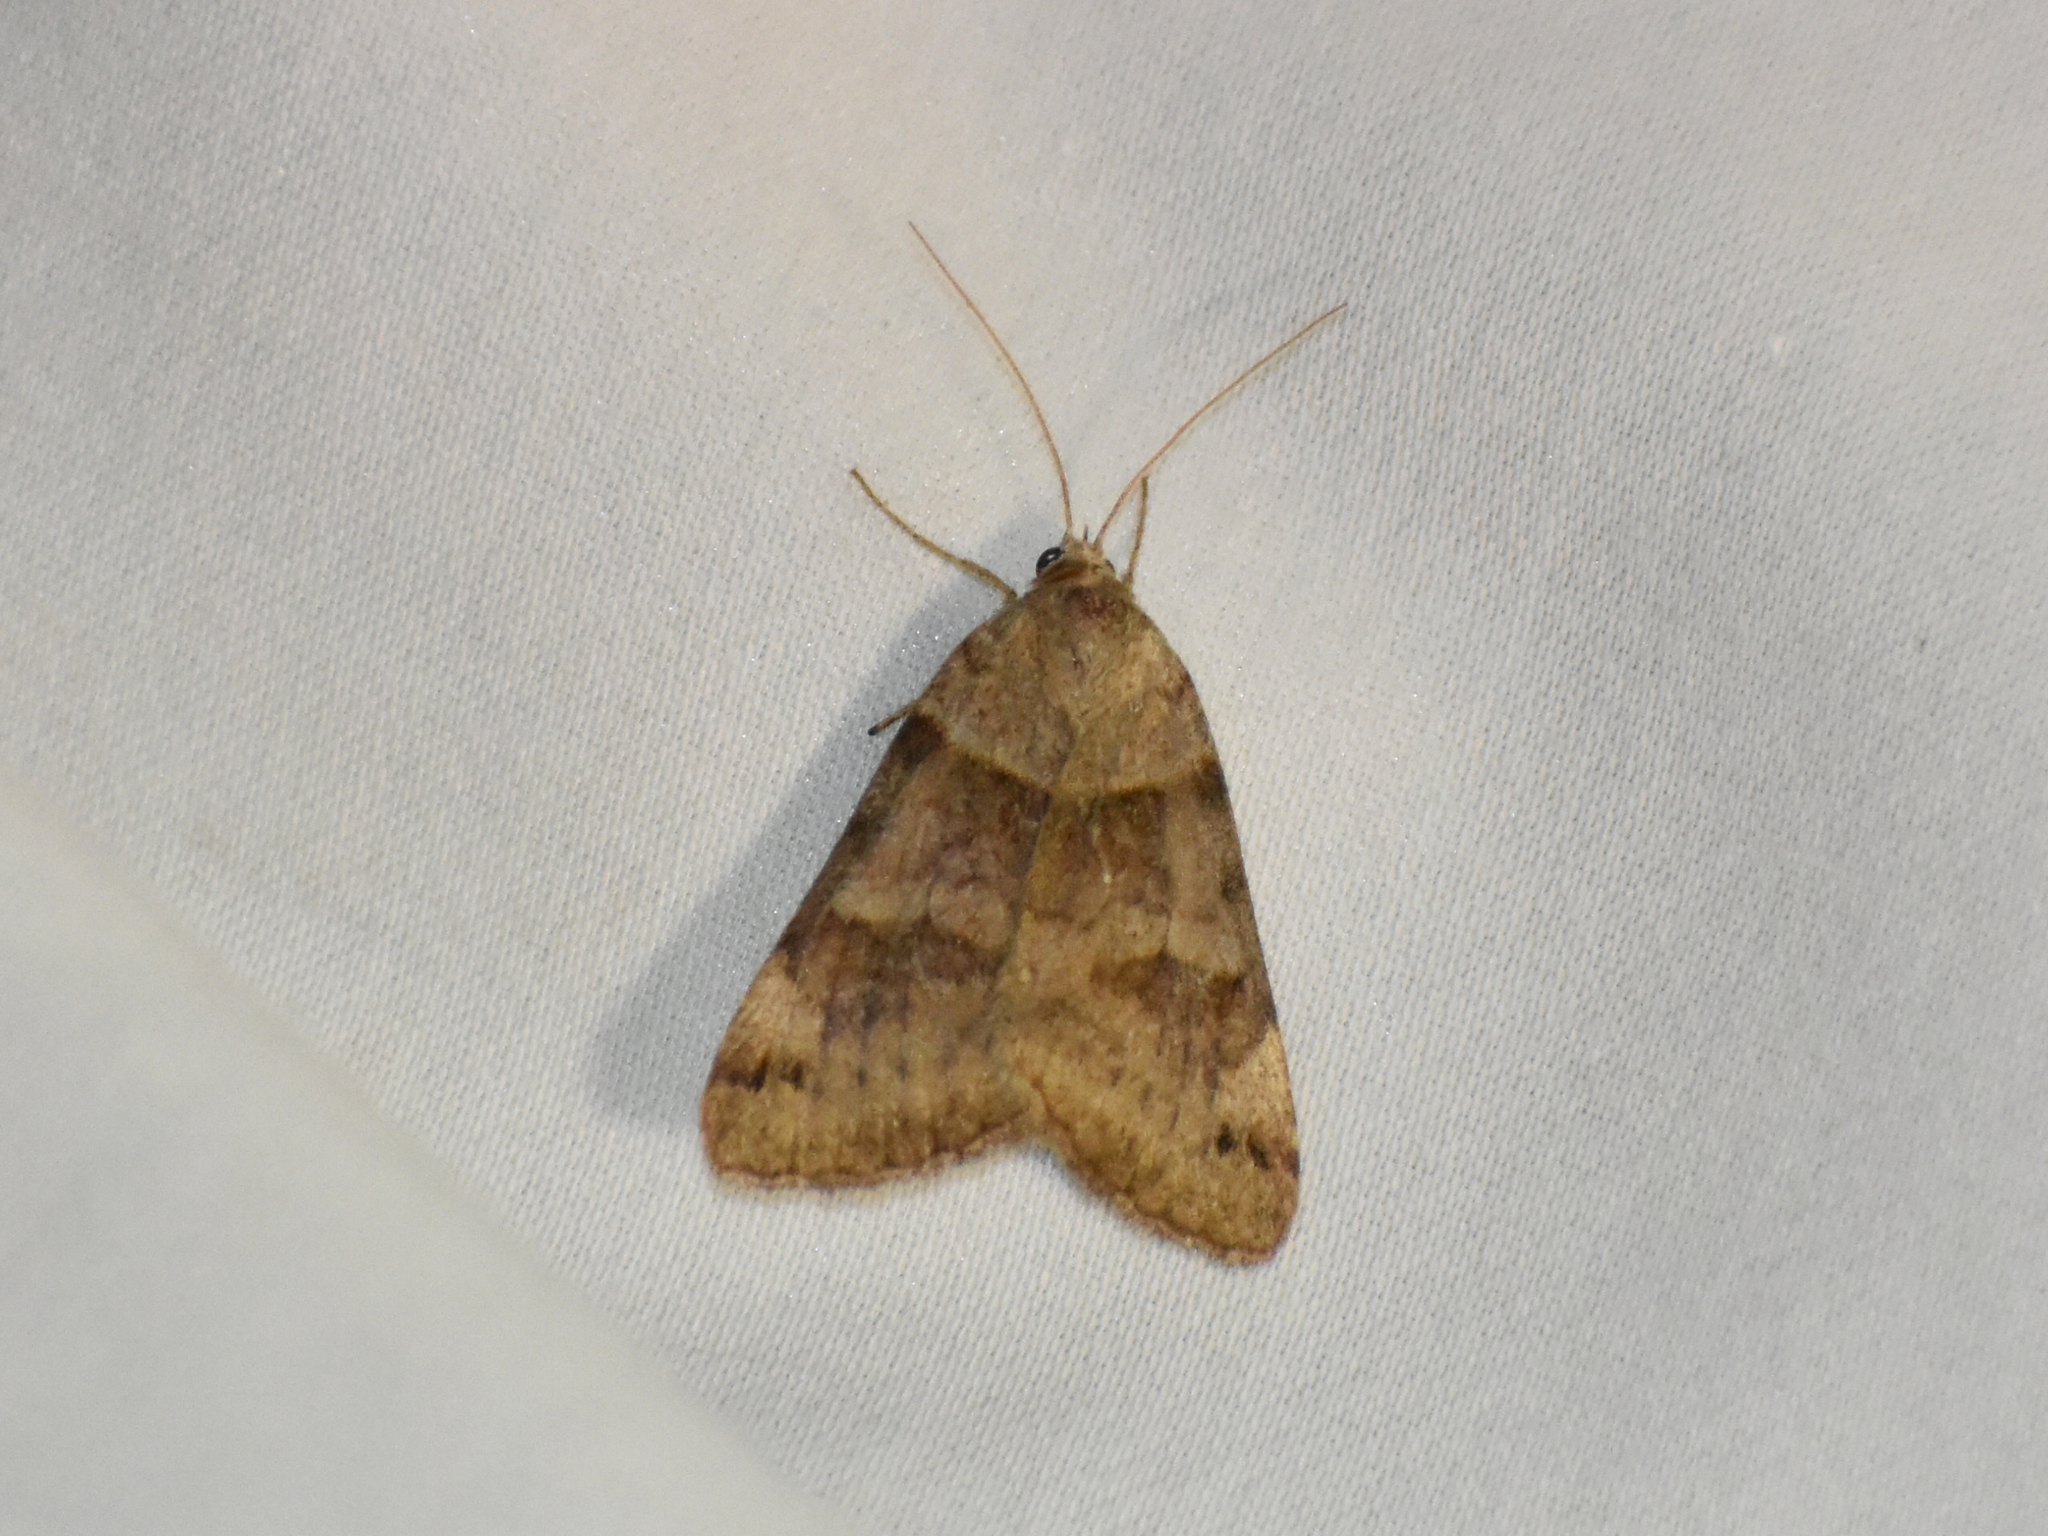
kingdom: Animalia
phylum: Arthropoda
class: Insecta
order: Lepidoptera
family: Erebidae
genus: Caenurgina
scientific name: Caenurgina crassiuscula
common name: Double-barred
